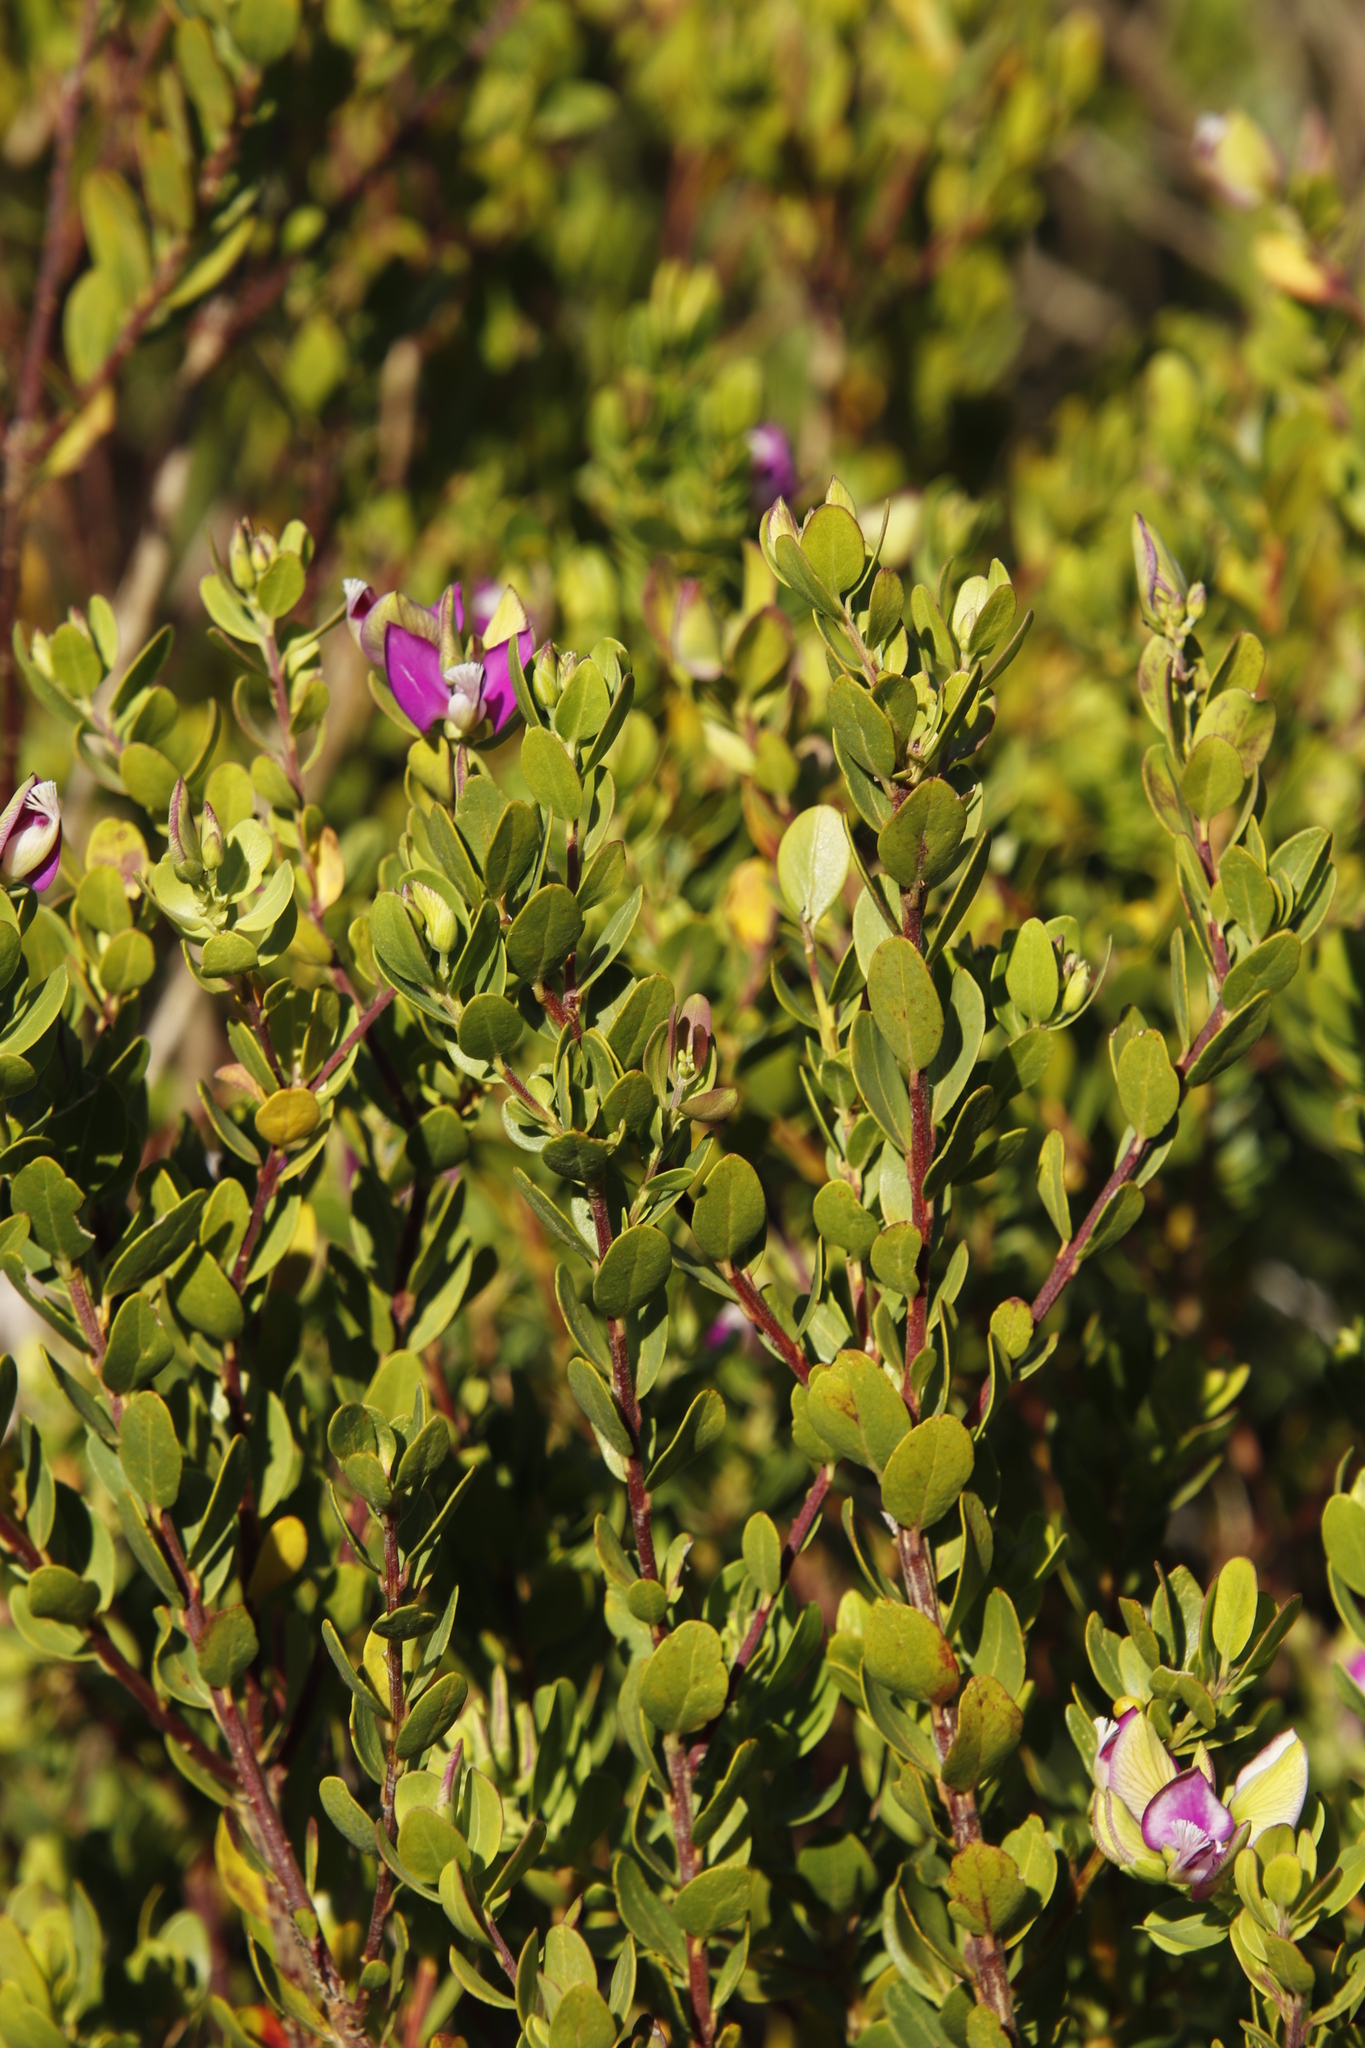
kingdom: Plantae
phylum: Tracheophyta
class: Magnoliopsida
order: Fabales
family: Polygalaceae
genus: Polygala
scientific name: Polygala myrtifolia
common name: Myrtle-leaf milkwort
